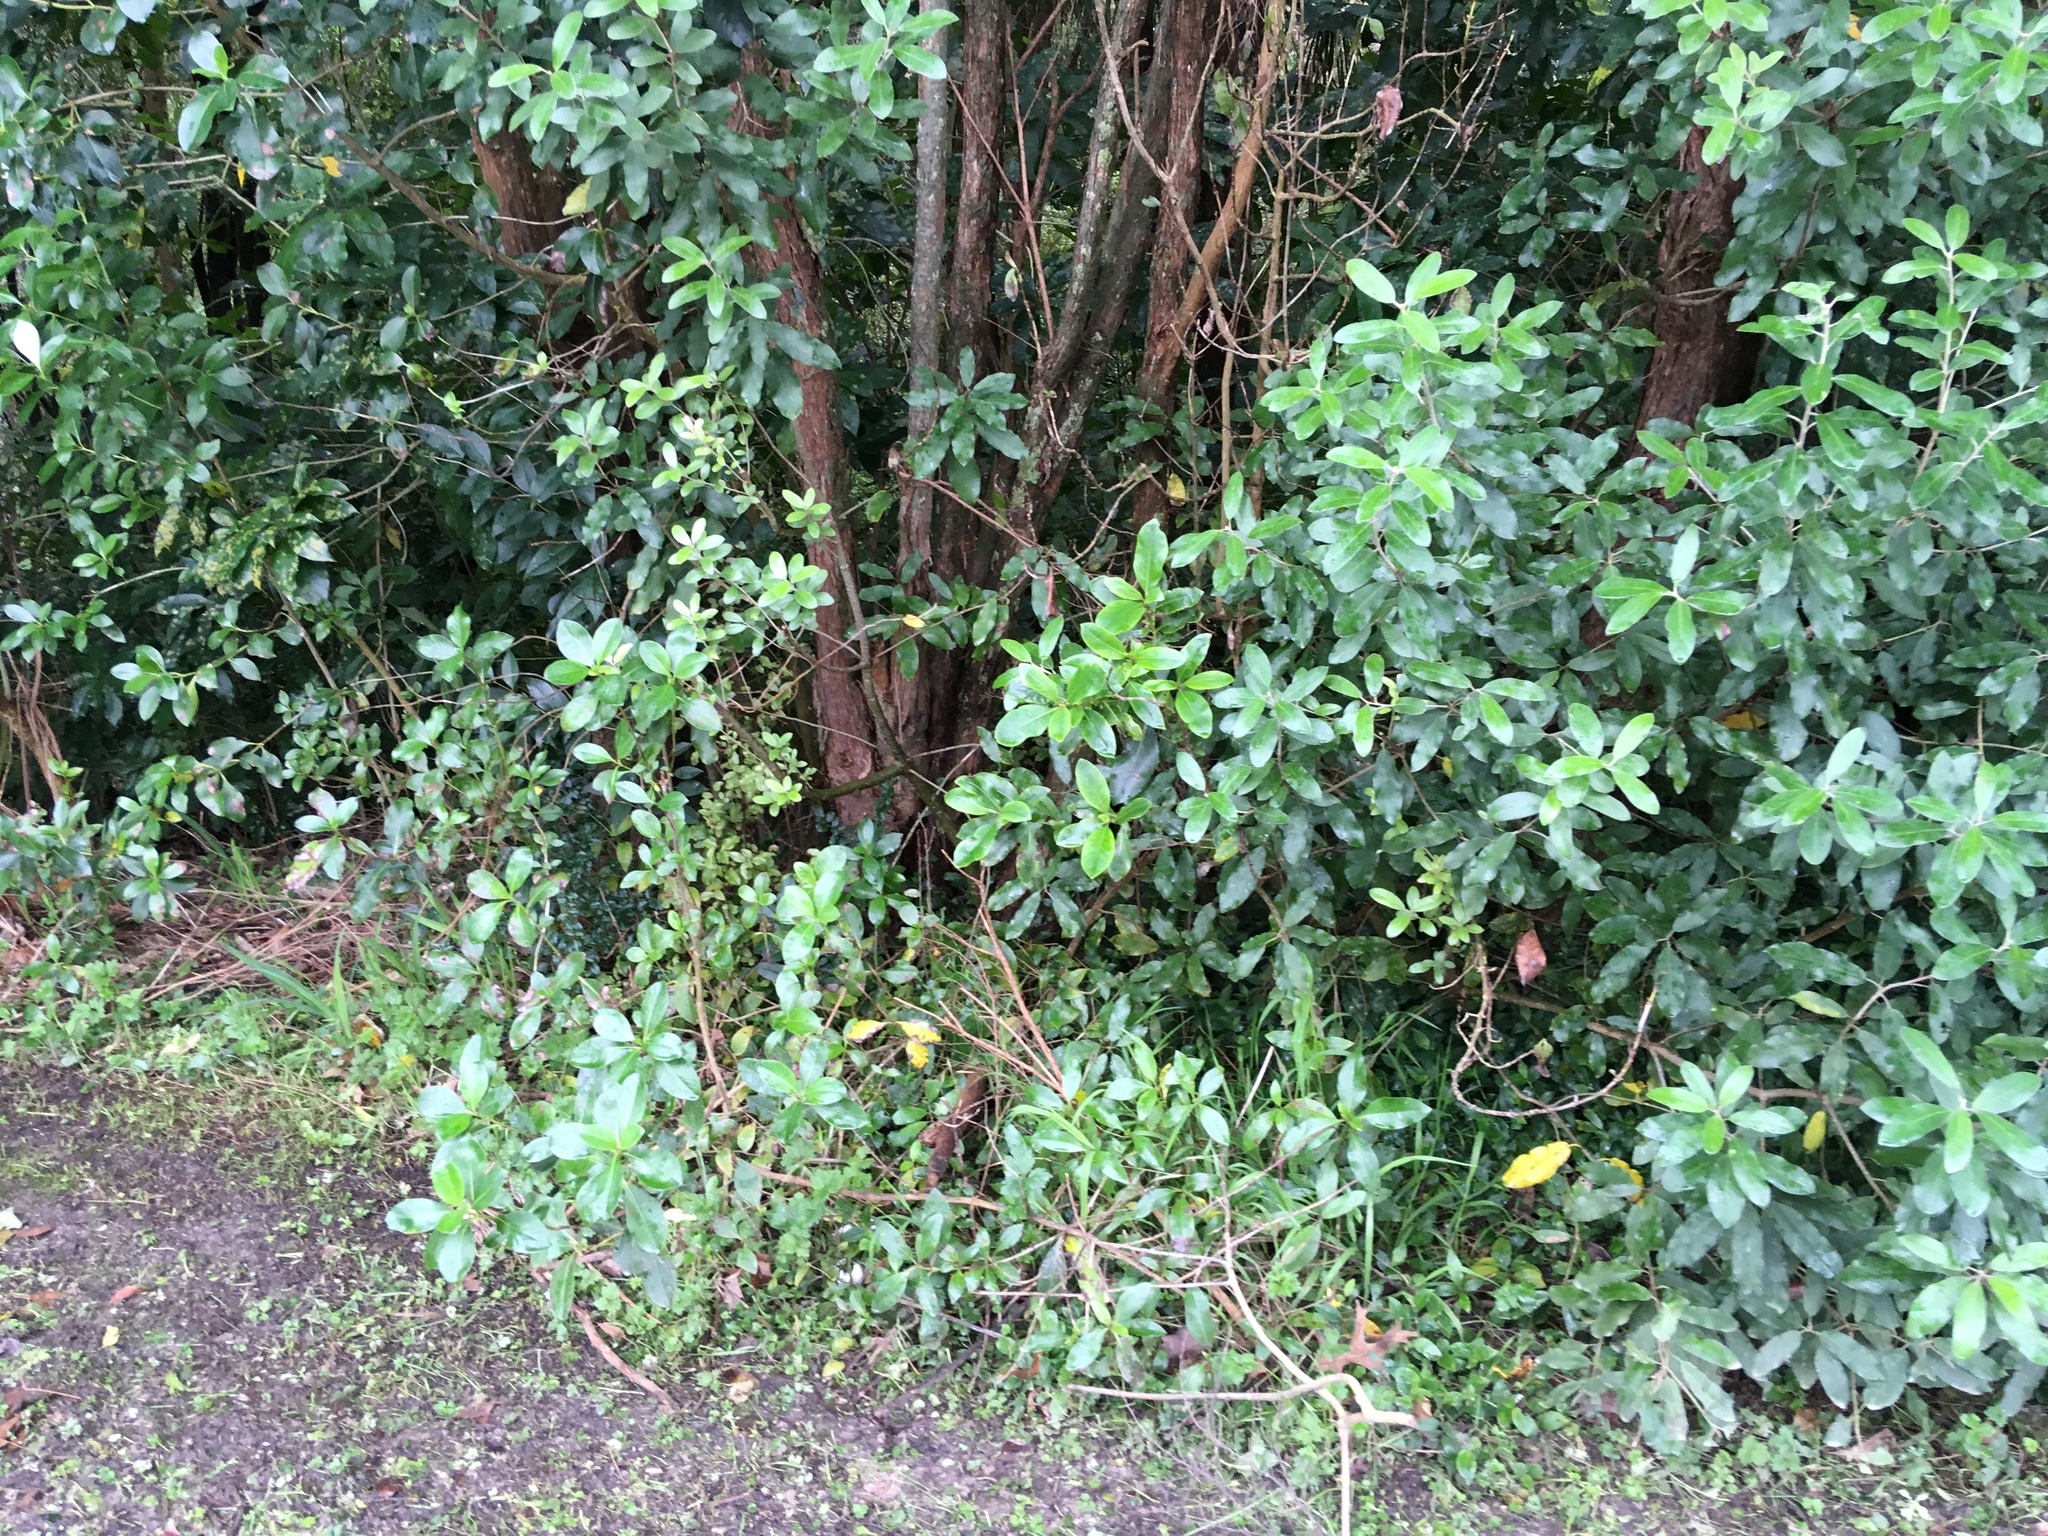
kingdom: Plantae
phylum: Tracheophyta
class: Magnoliopsida
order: Apiales
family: Pittosporaceae
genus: Pittosporum
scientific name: Pittosporum ralphii
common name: Ralph's desertwillow
